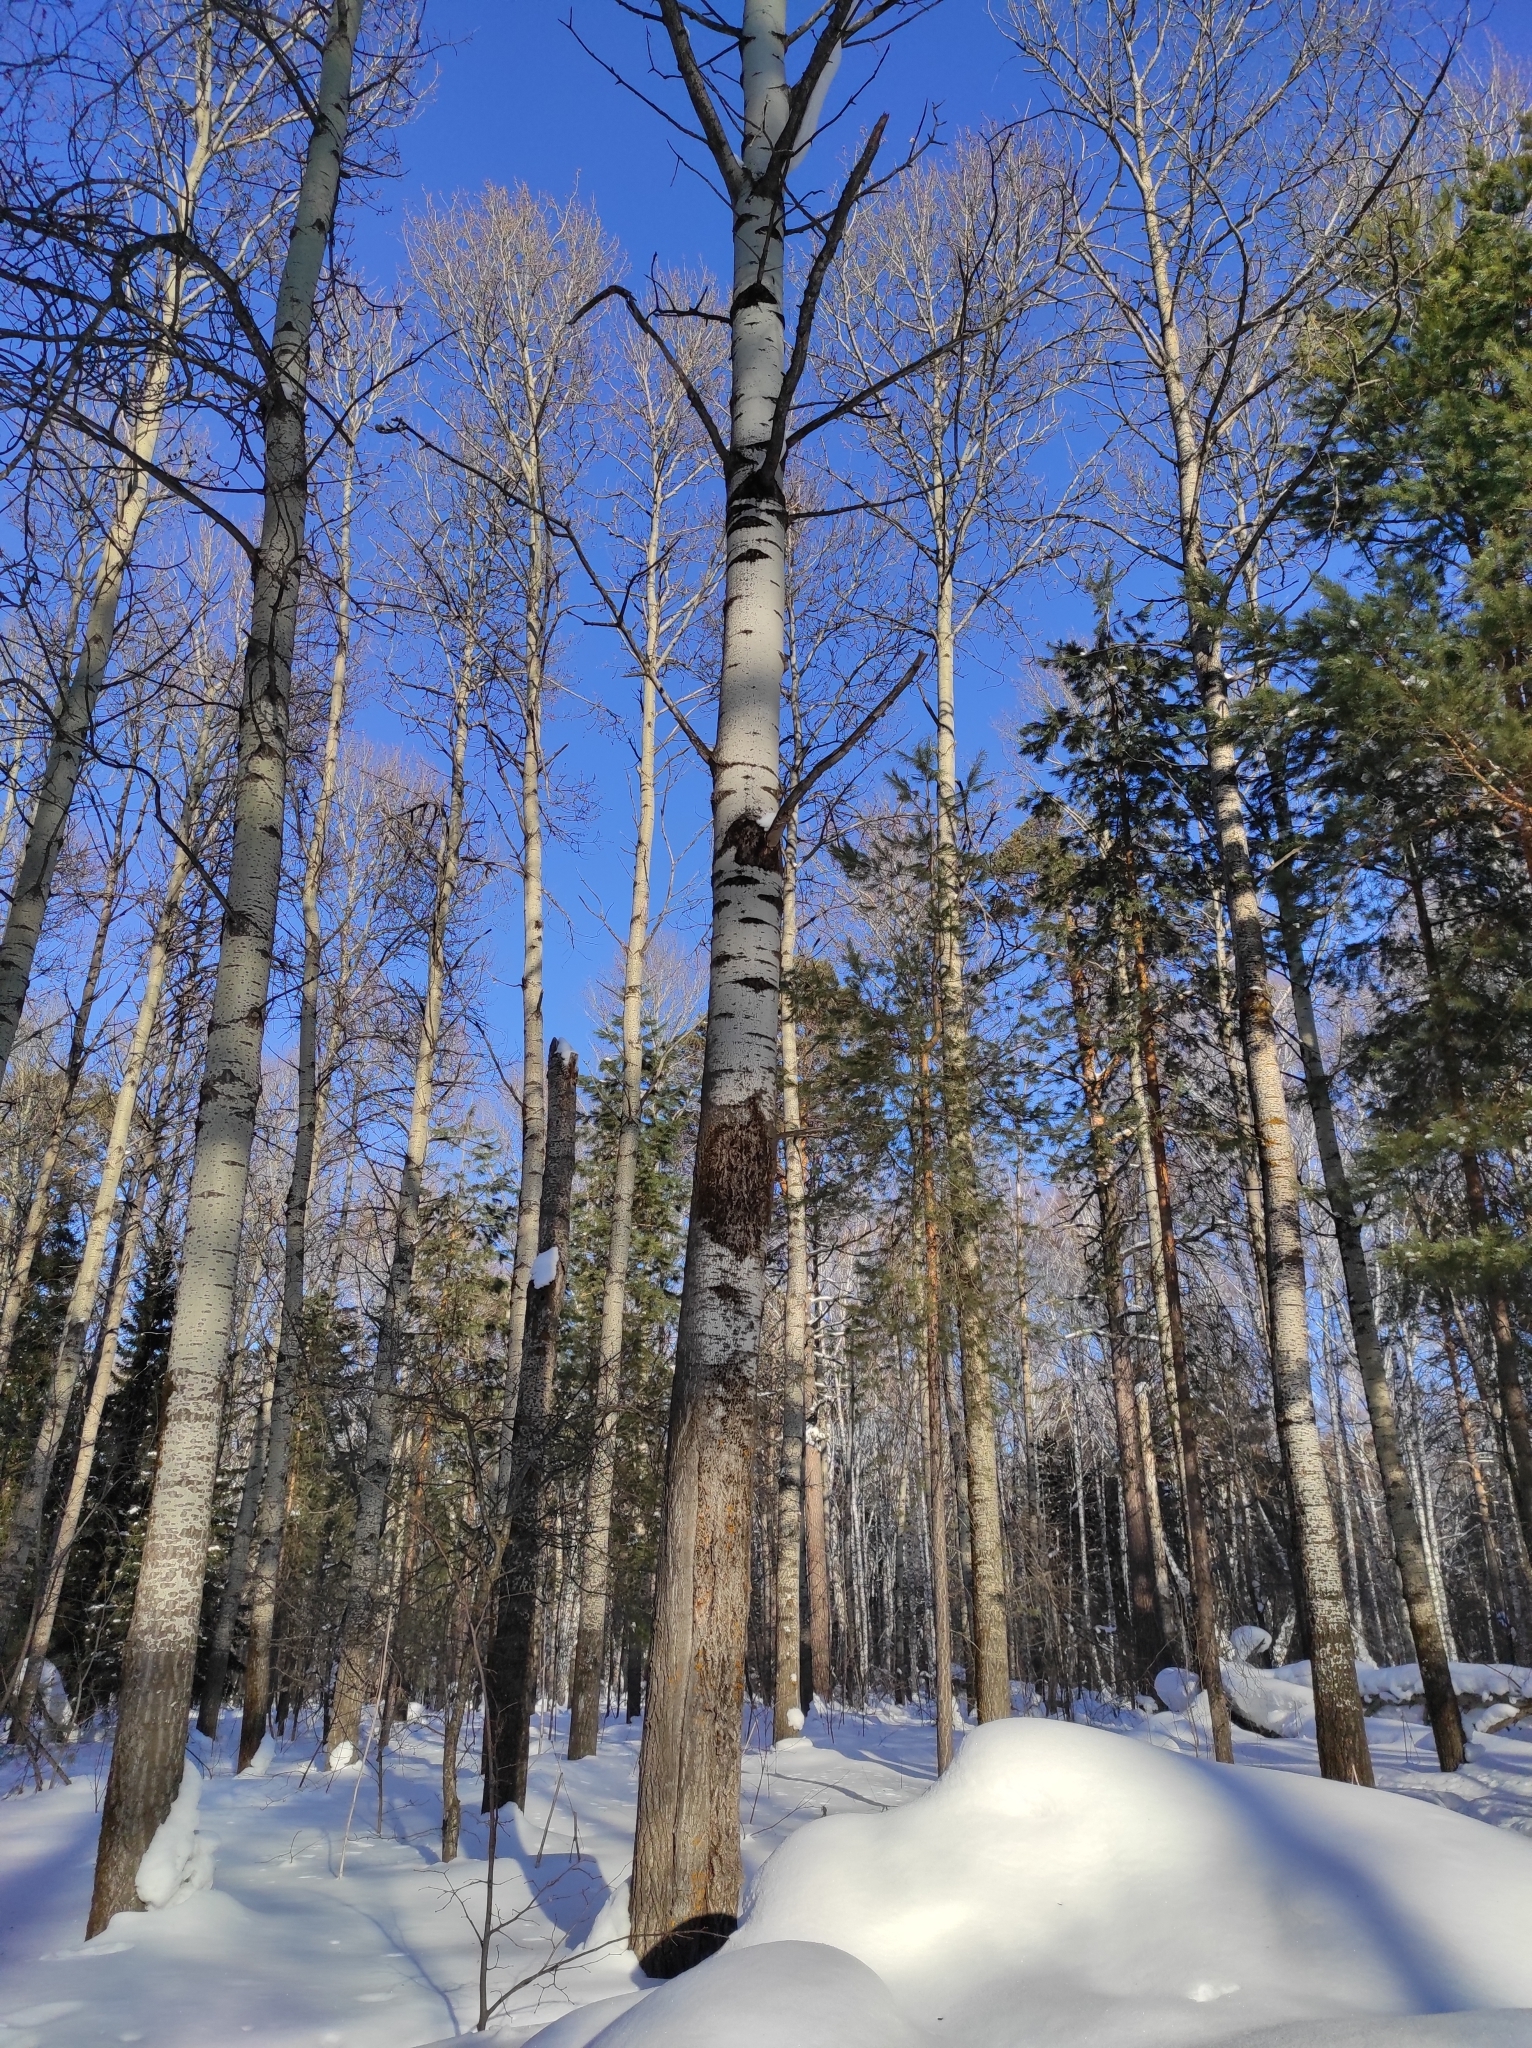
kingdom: Plantae
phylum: Tracheophyta
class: Magnoliopsida
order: Malpighiales
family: Salicaceae
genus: Populus
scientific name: Populus tremula
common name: European aspen
